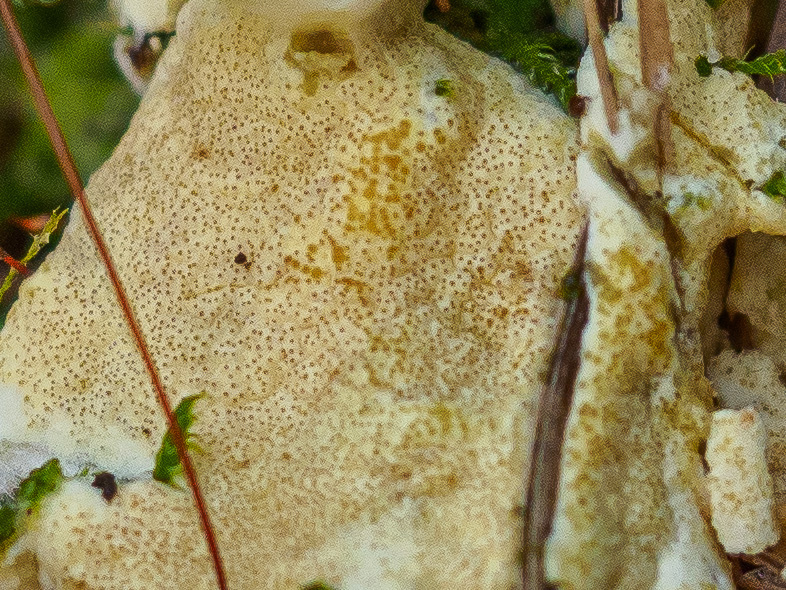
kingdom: Fungi
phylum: Ascomycota
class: Sordariomycetes
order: Hypocreales
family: Hypocreaceae
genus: Trichoderma
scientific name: Trichoderma citrinum
